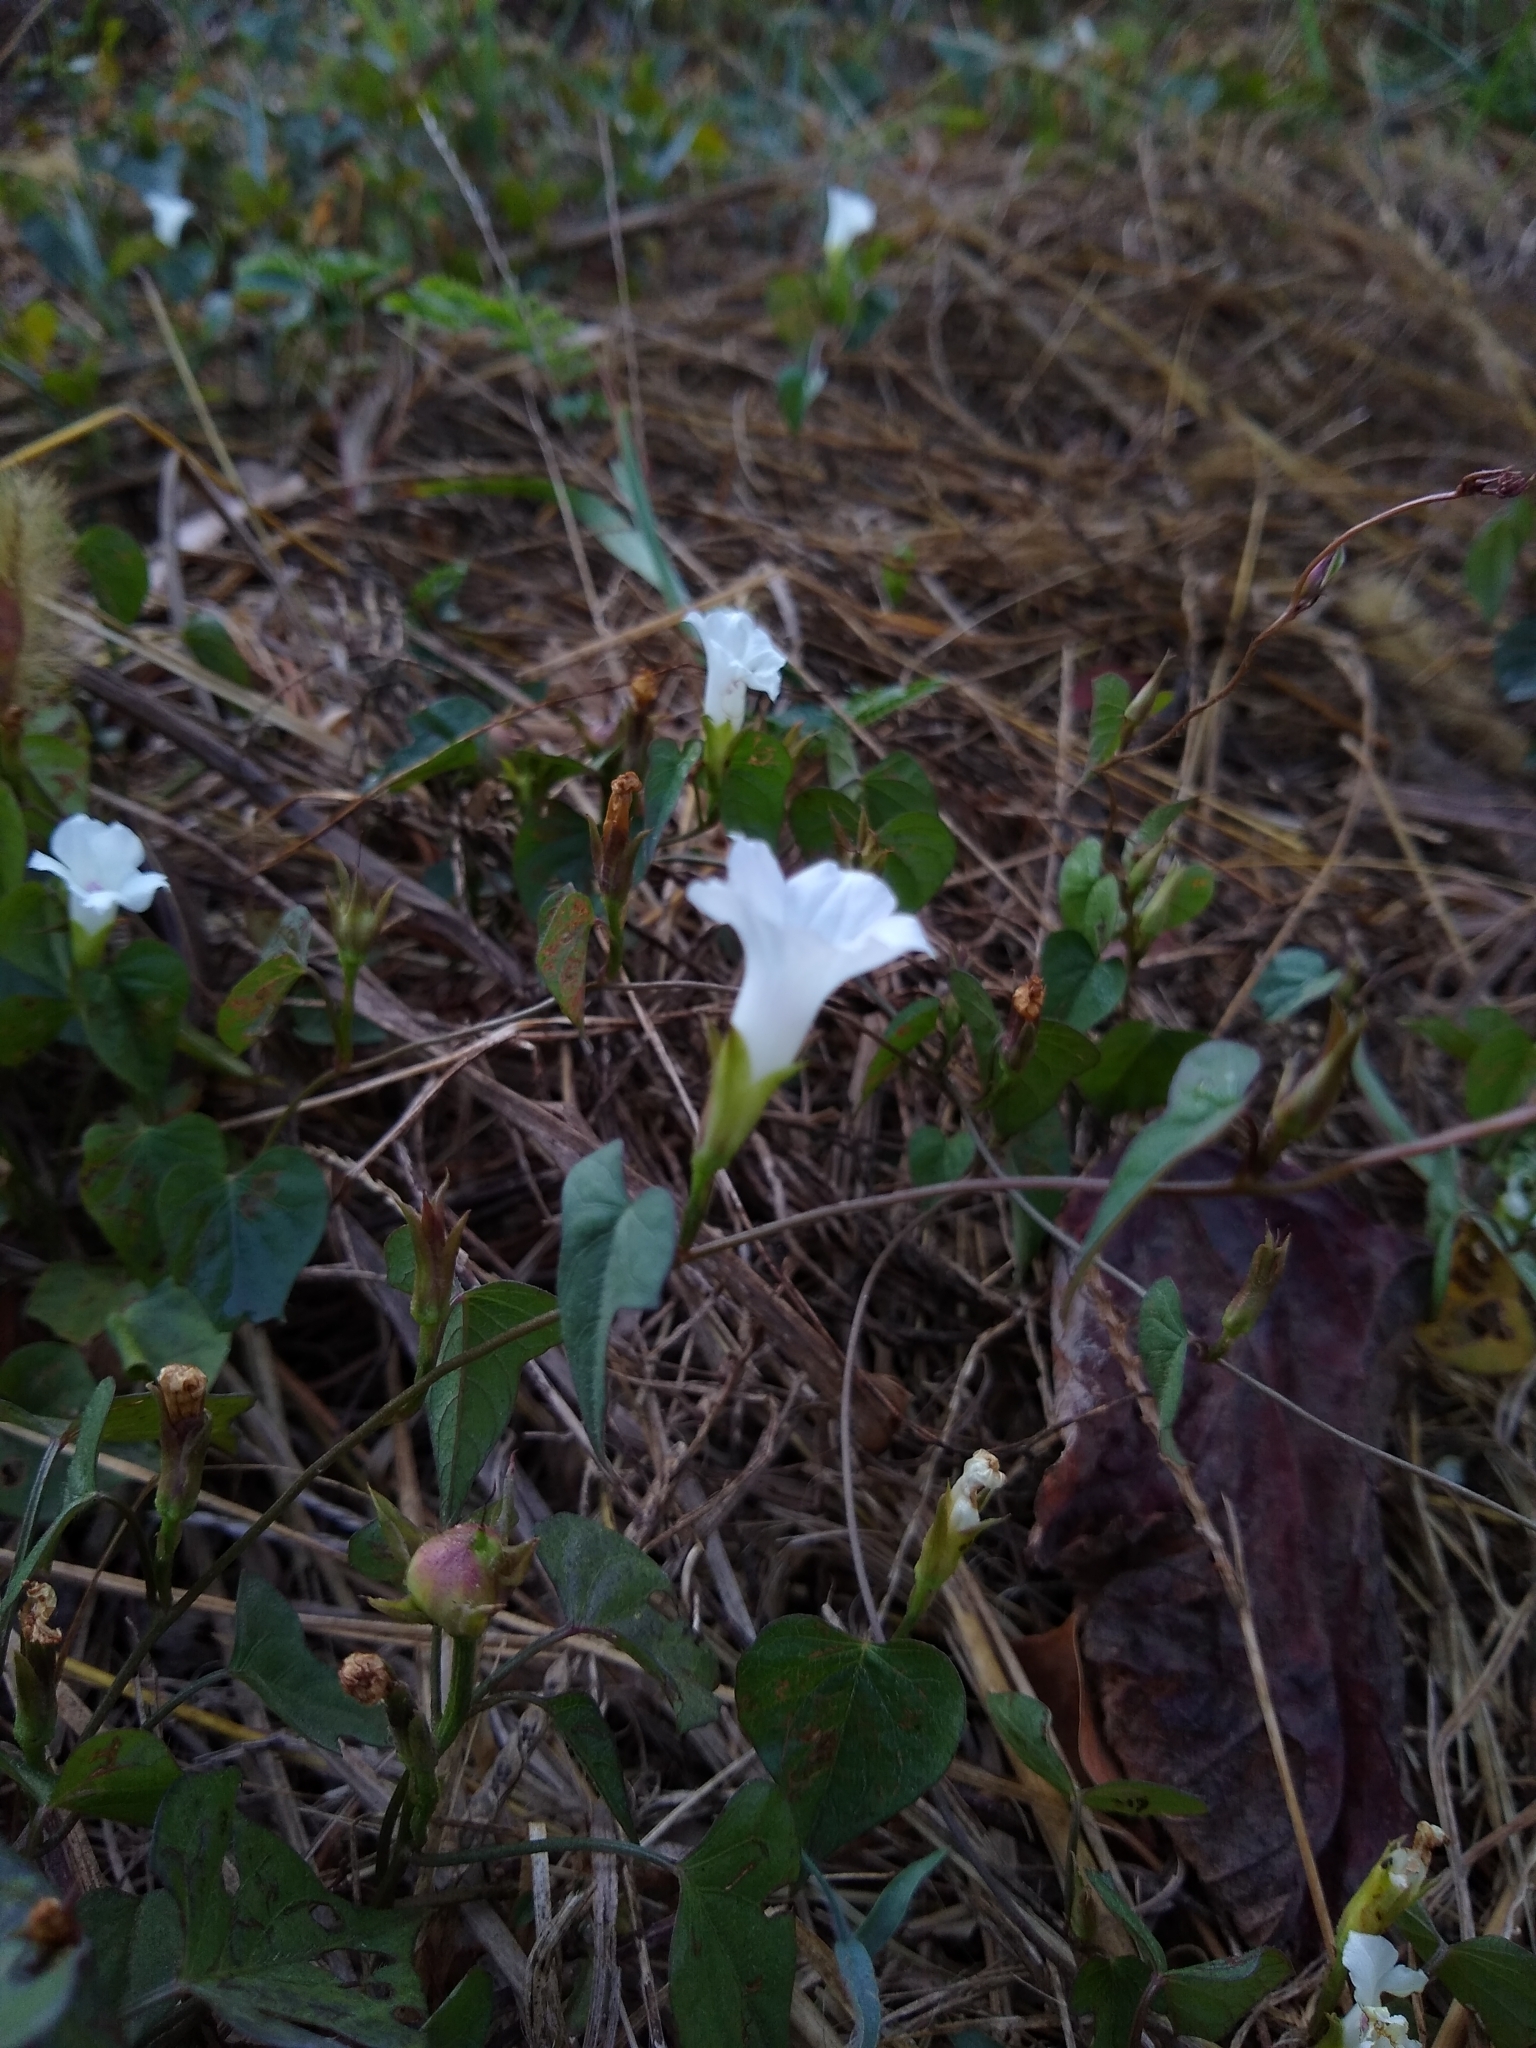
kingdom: Plantae
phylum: Tracheophyta
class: Magnoliopsida
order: Solanales
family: Convolvulaceae
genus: Ipomoea
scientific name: Ipomoea lacunosa
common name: White morning-glory
